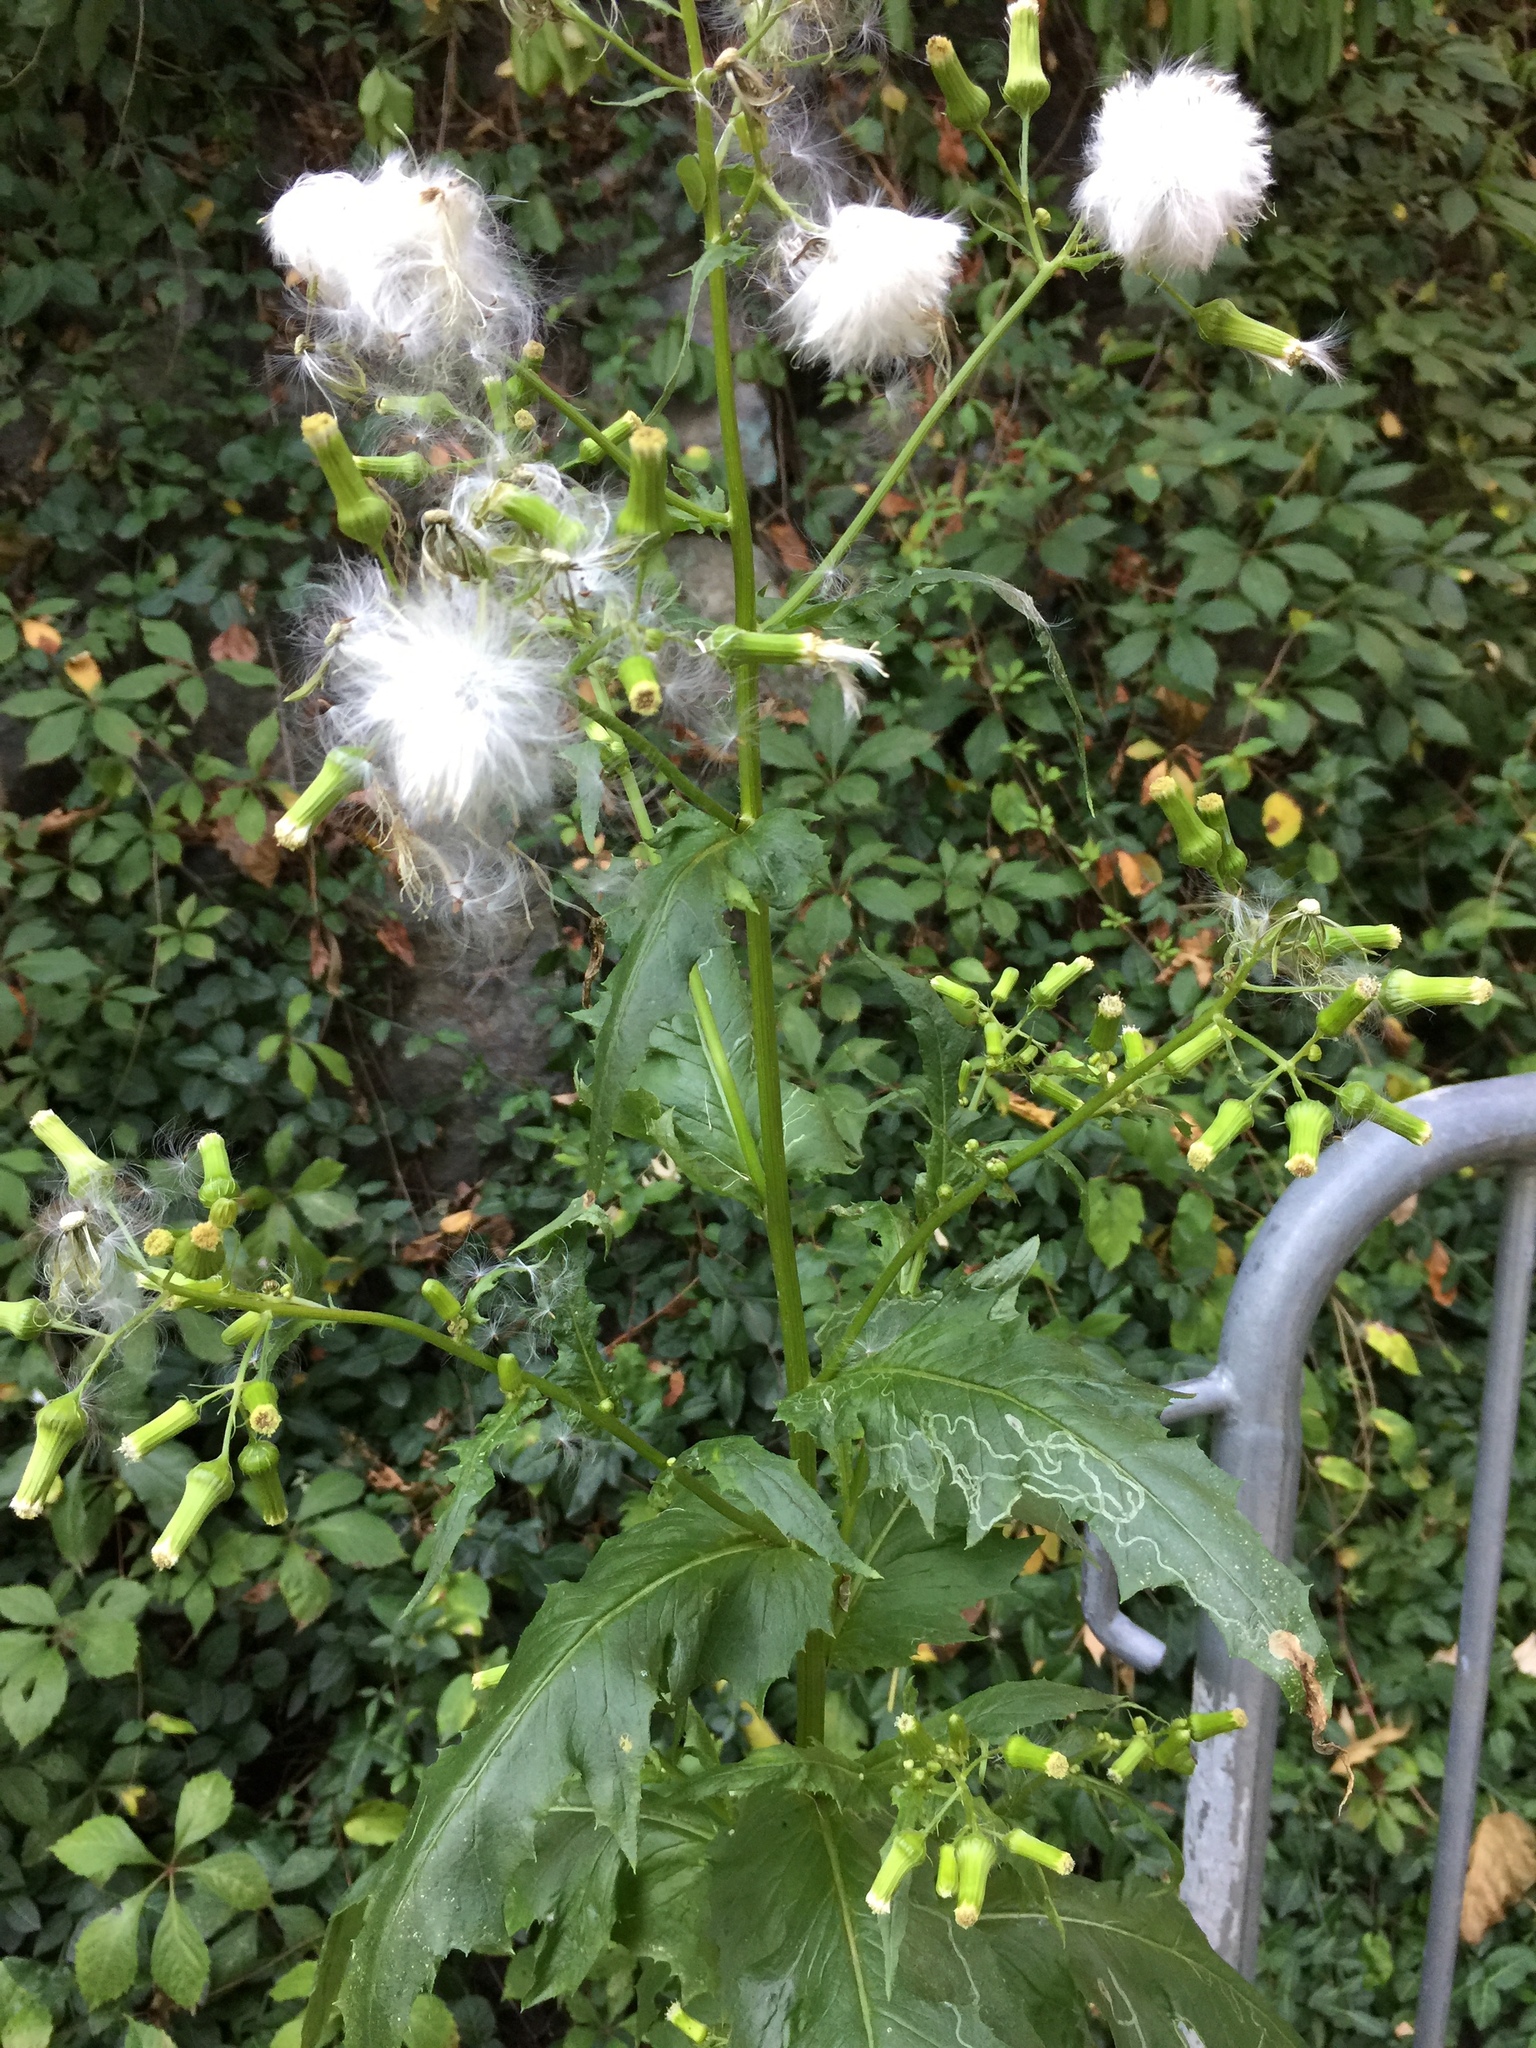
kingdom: Plantae
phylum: Tracheophyta
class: Magnoliopsida
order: Asterales
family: Asteraceae
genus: Erechtites
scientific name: Erechtites hieraciifolius
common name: American burnweed
